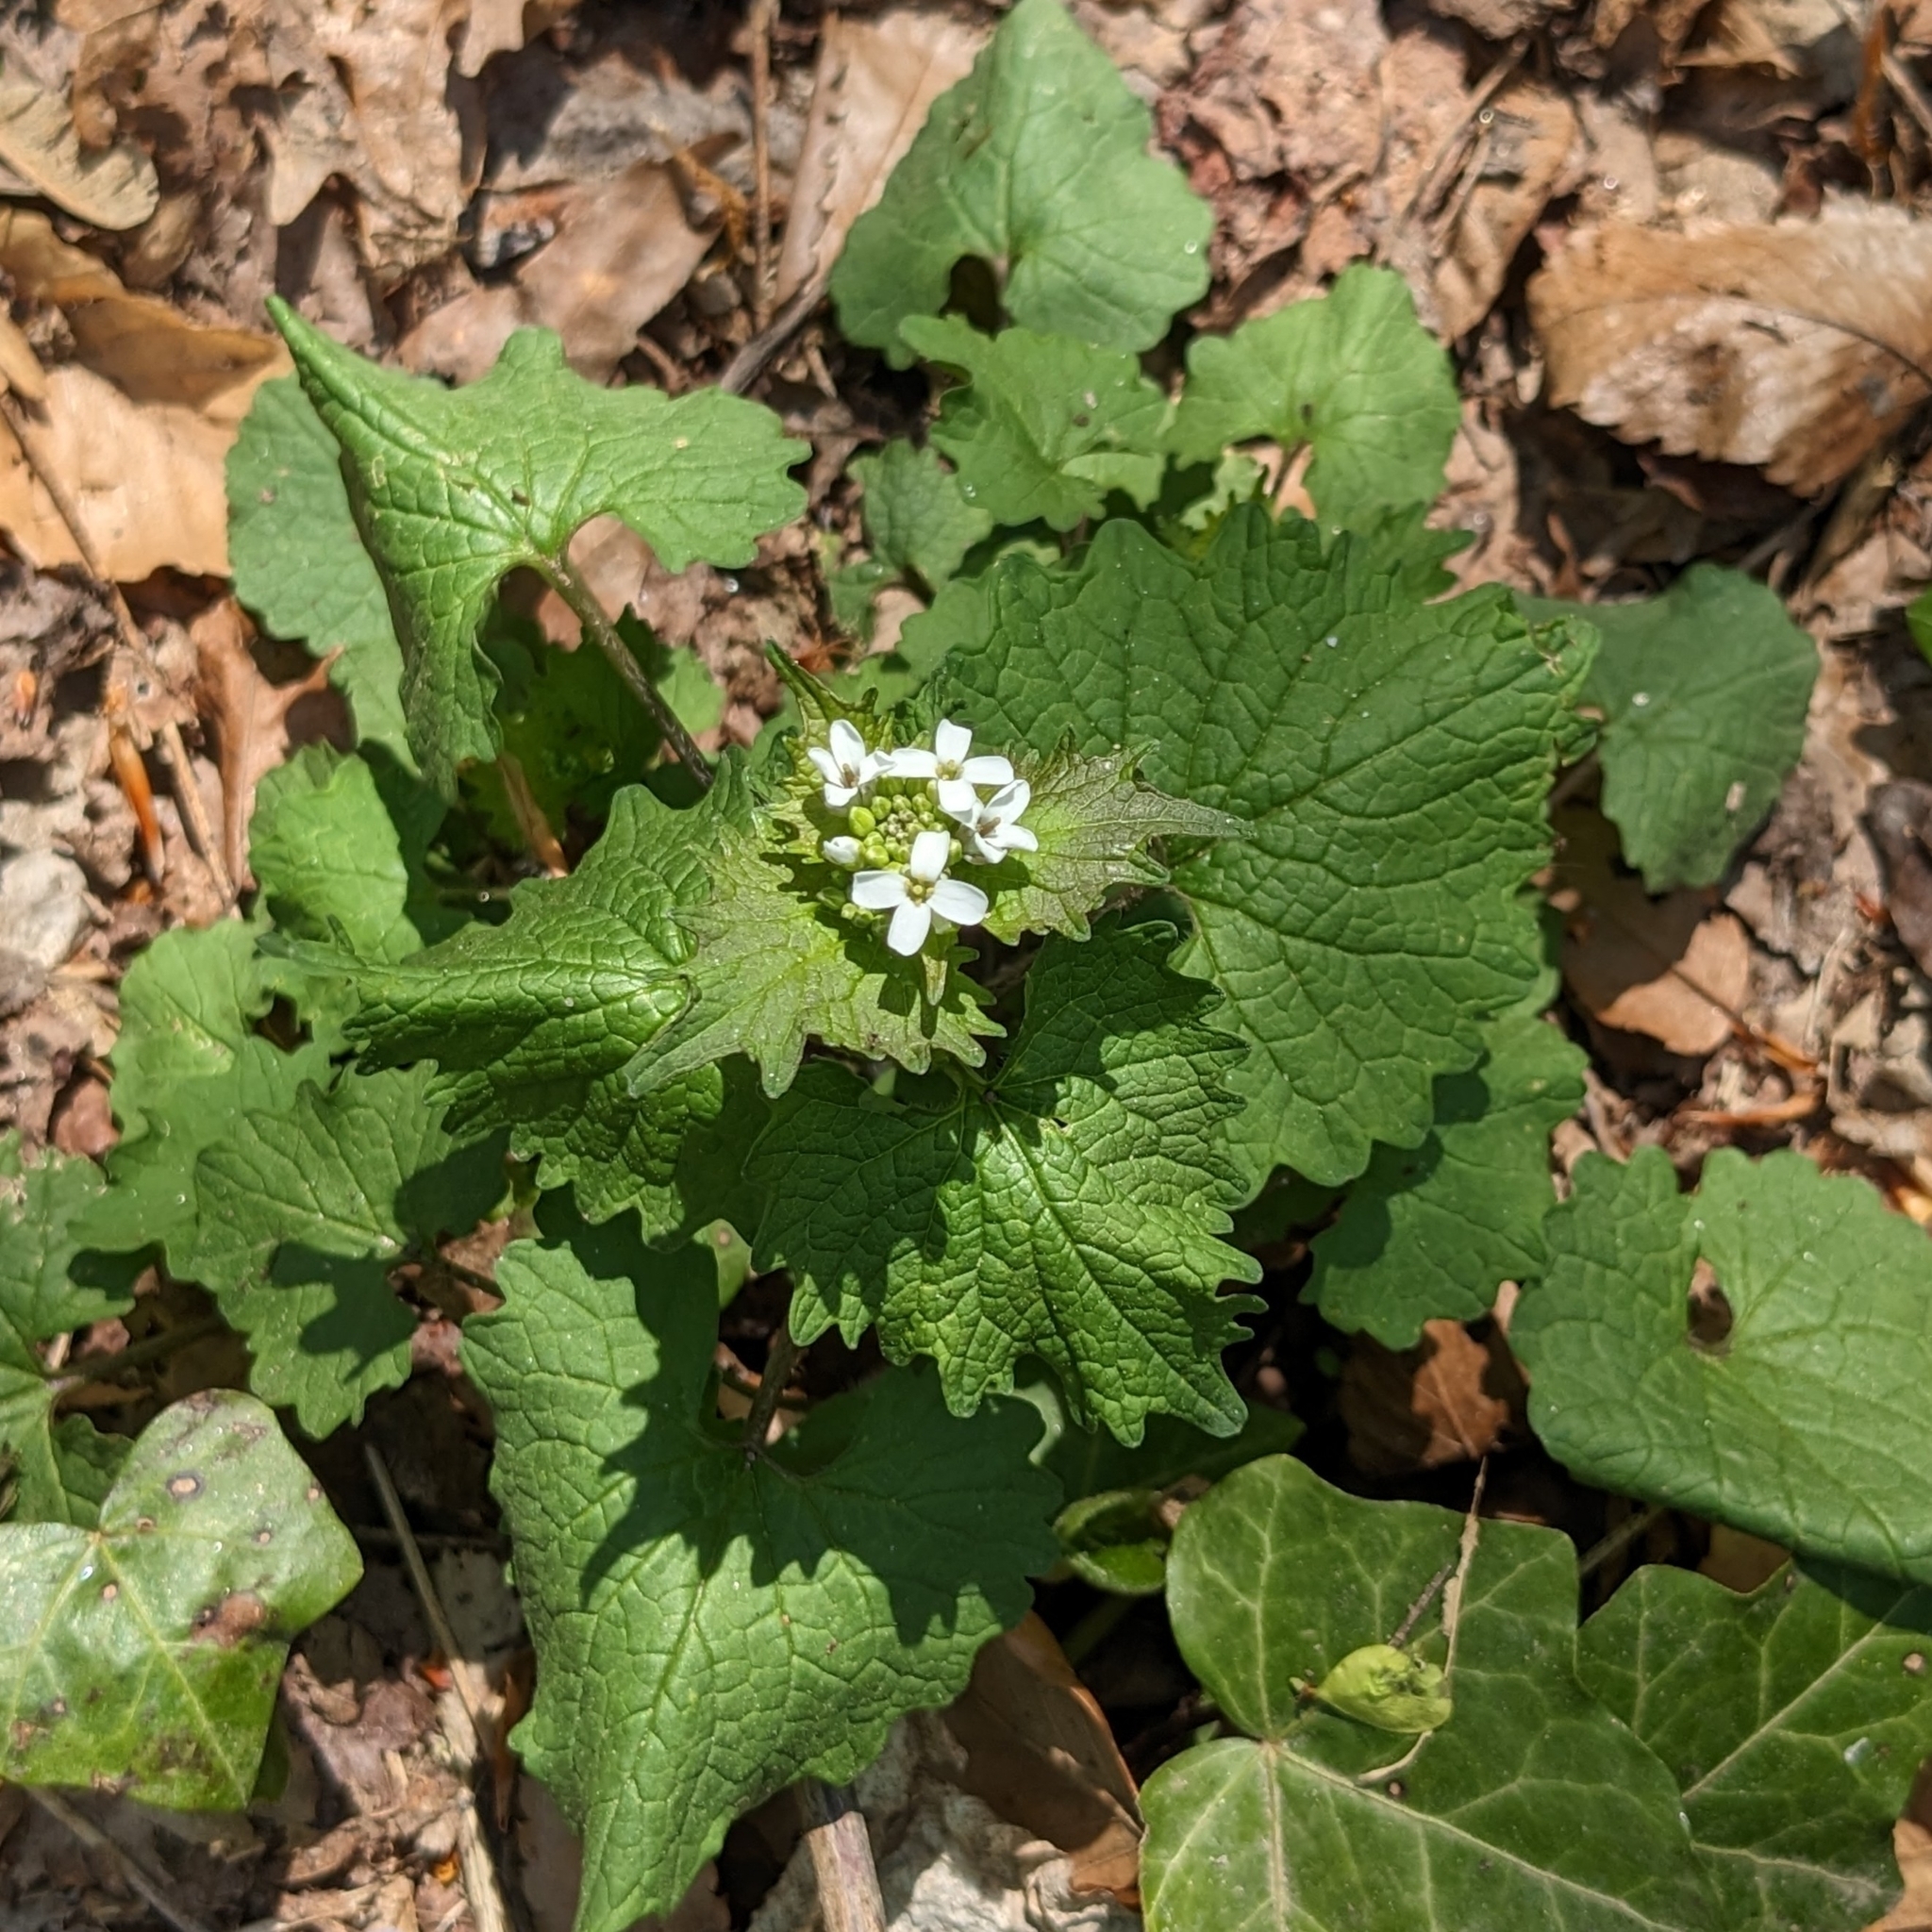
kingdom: Plantae
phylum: Tracheophyta
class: Magnoliopsida
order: Brassicales
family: Brassicaceae
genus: Alliaria
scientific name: Alliaria petiolata
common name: Garlic mustard
